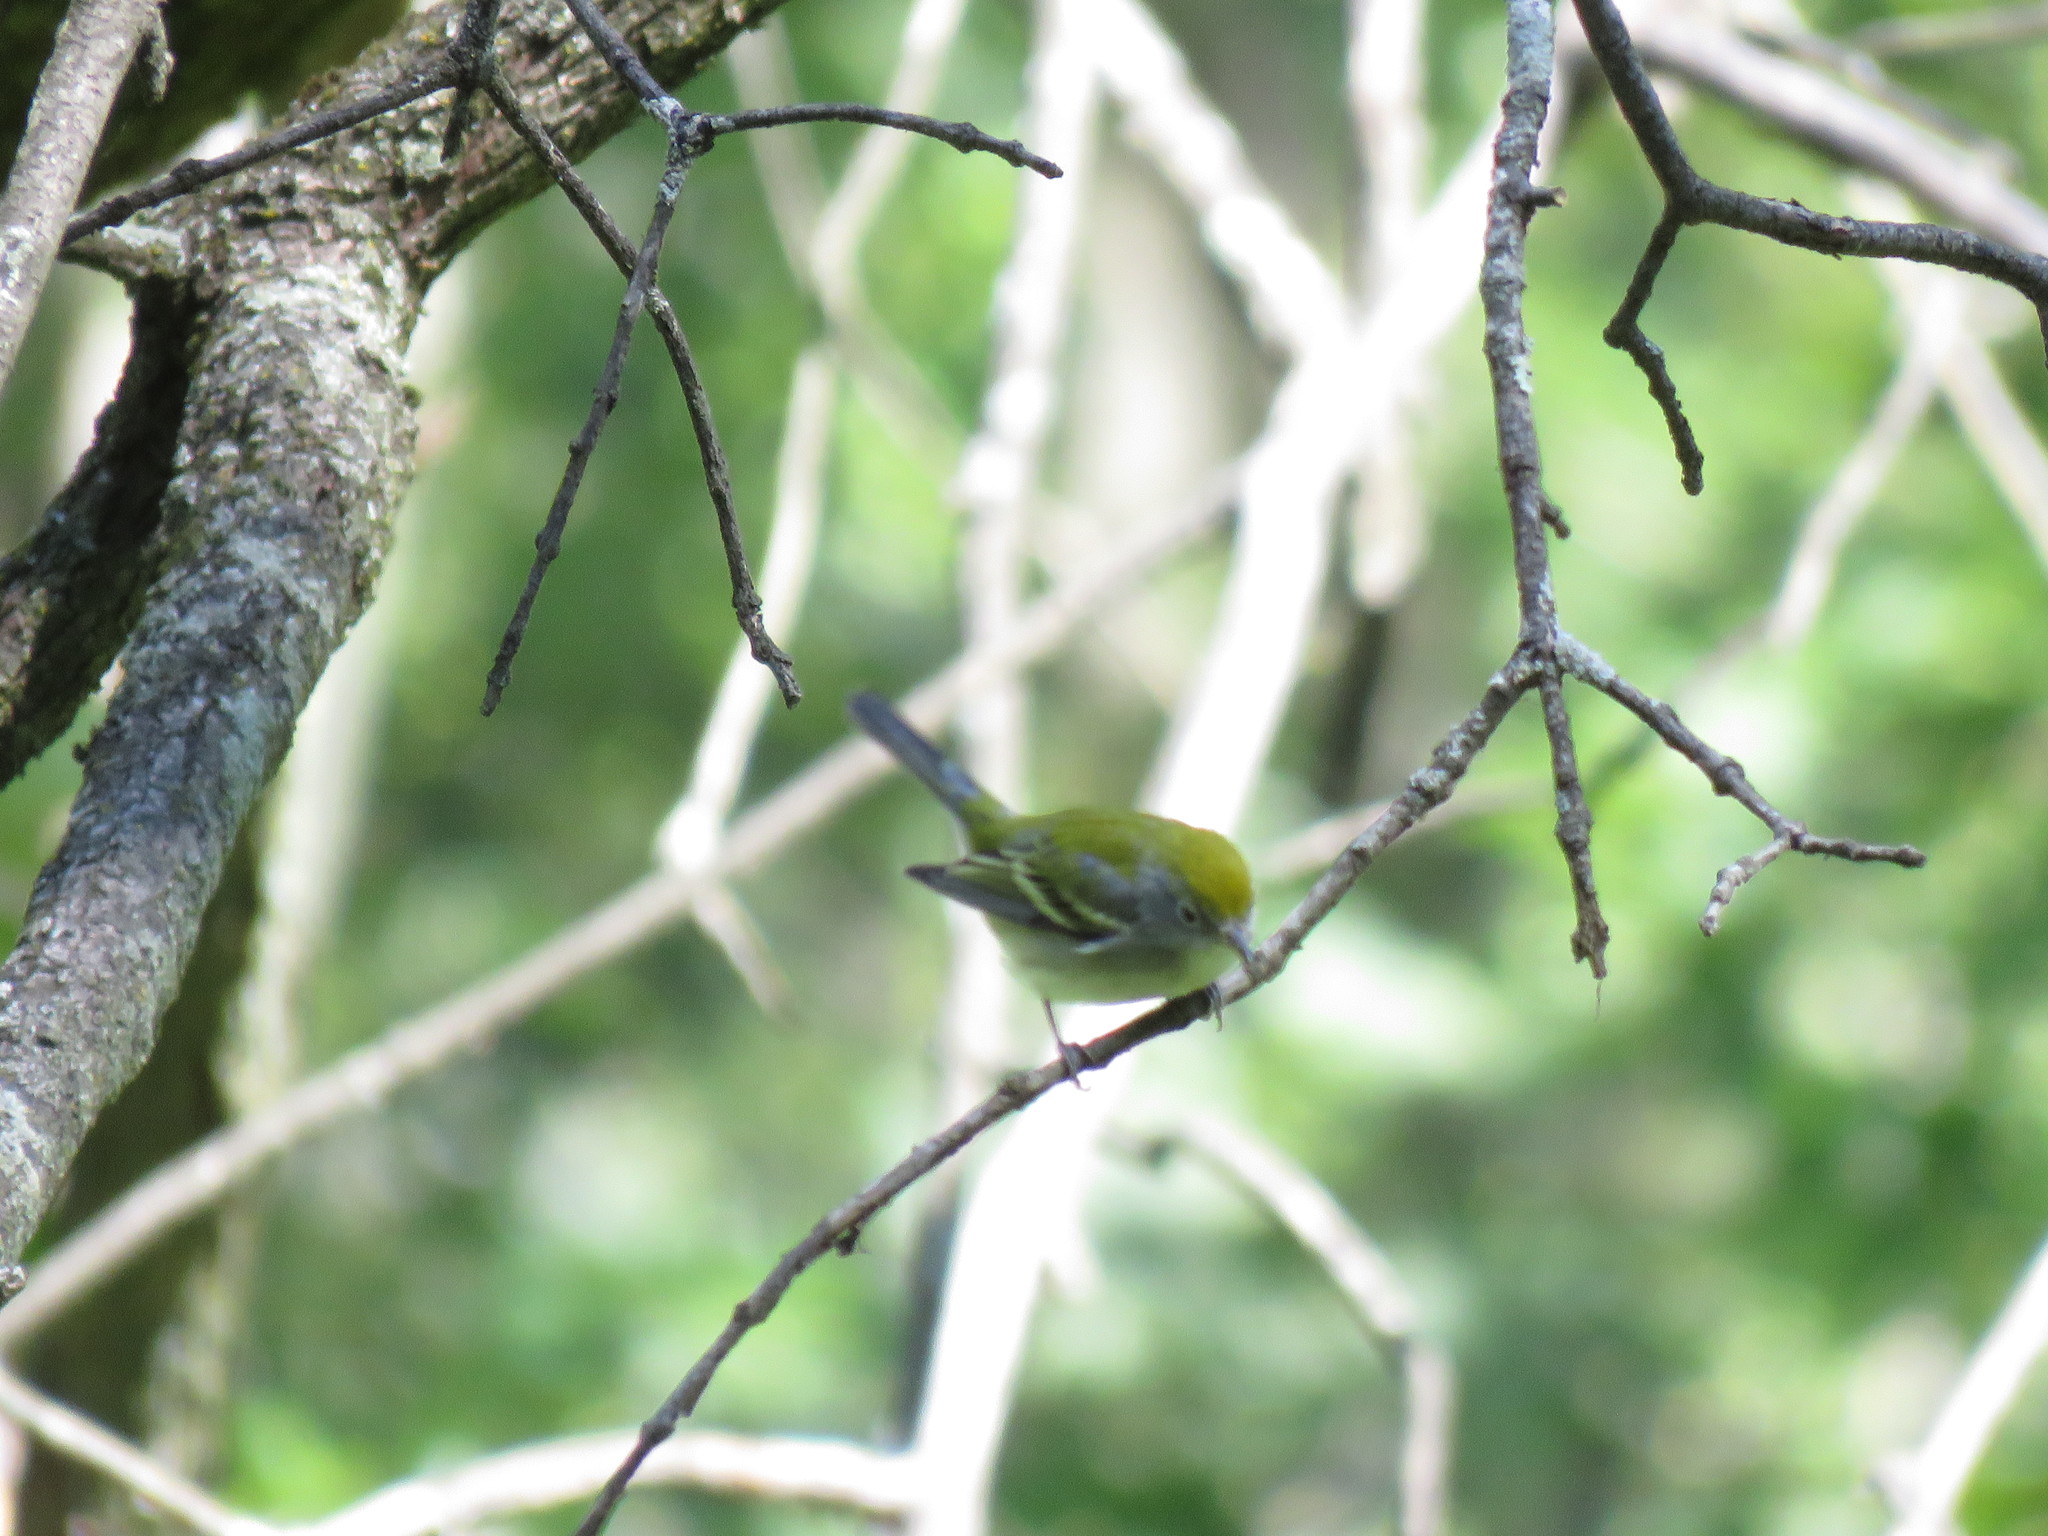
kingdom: Animalia
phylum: Chordata
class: Aves
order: Passeriformes
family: Parulidae
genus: Setophaga
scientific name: Setophaga pensylvanica
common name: Chestnut-sided warbler
